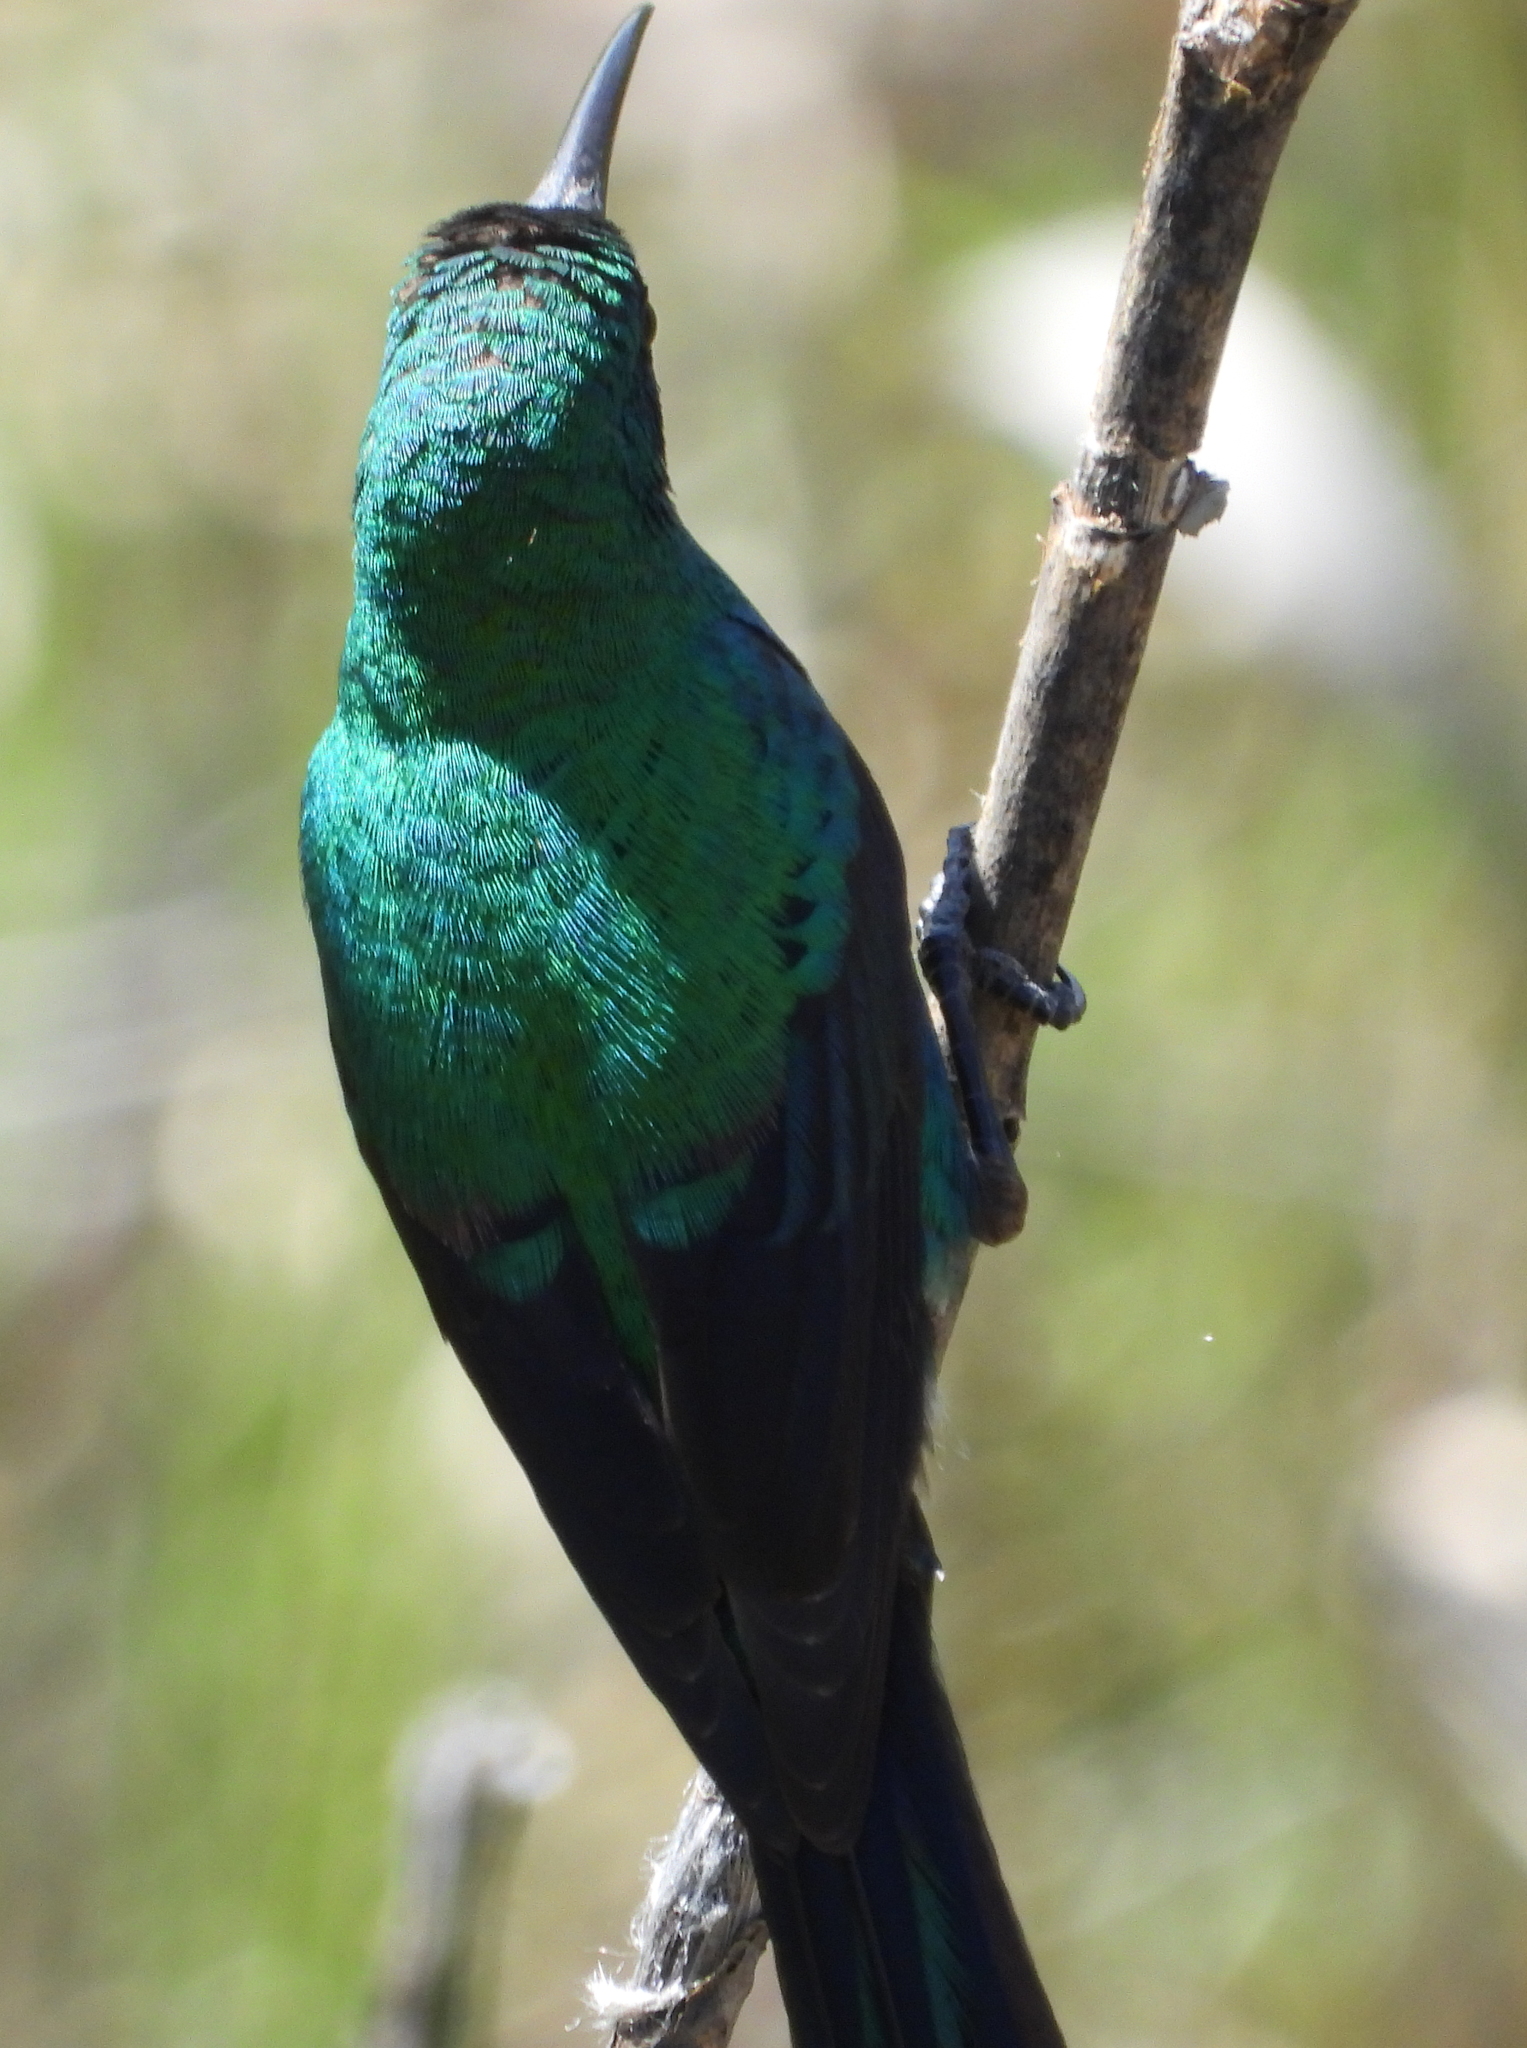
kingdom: Animalia
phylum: Chordata
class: Aves
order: Passeriformes
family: Nectariniidae
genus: Nectarinia
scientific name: Nectarinia famosa
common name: Malachite sunbird
